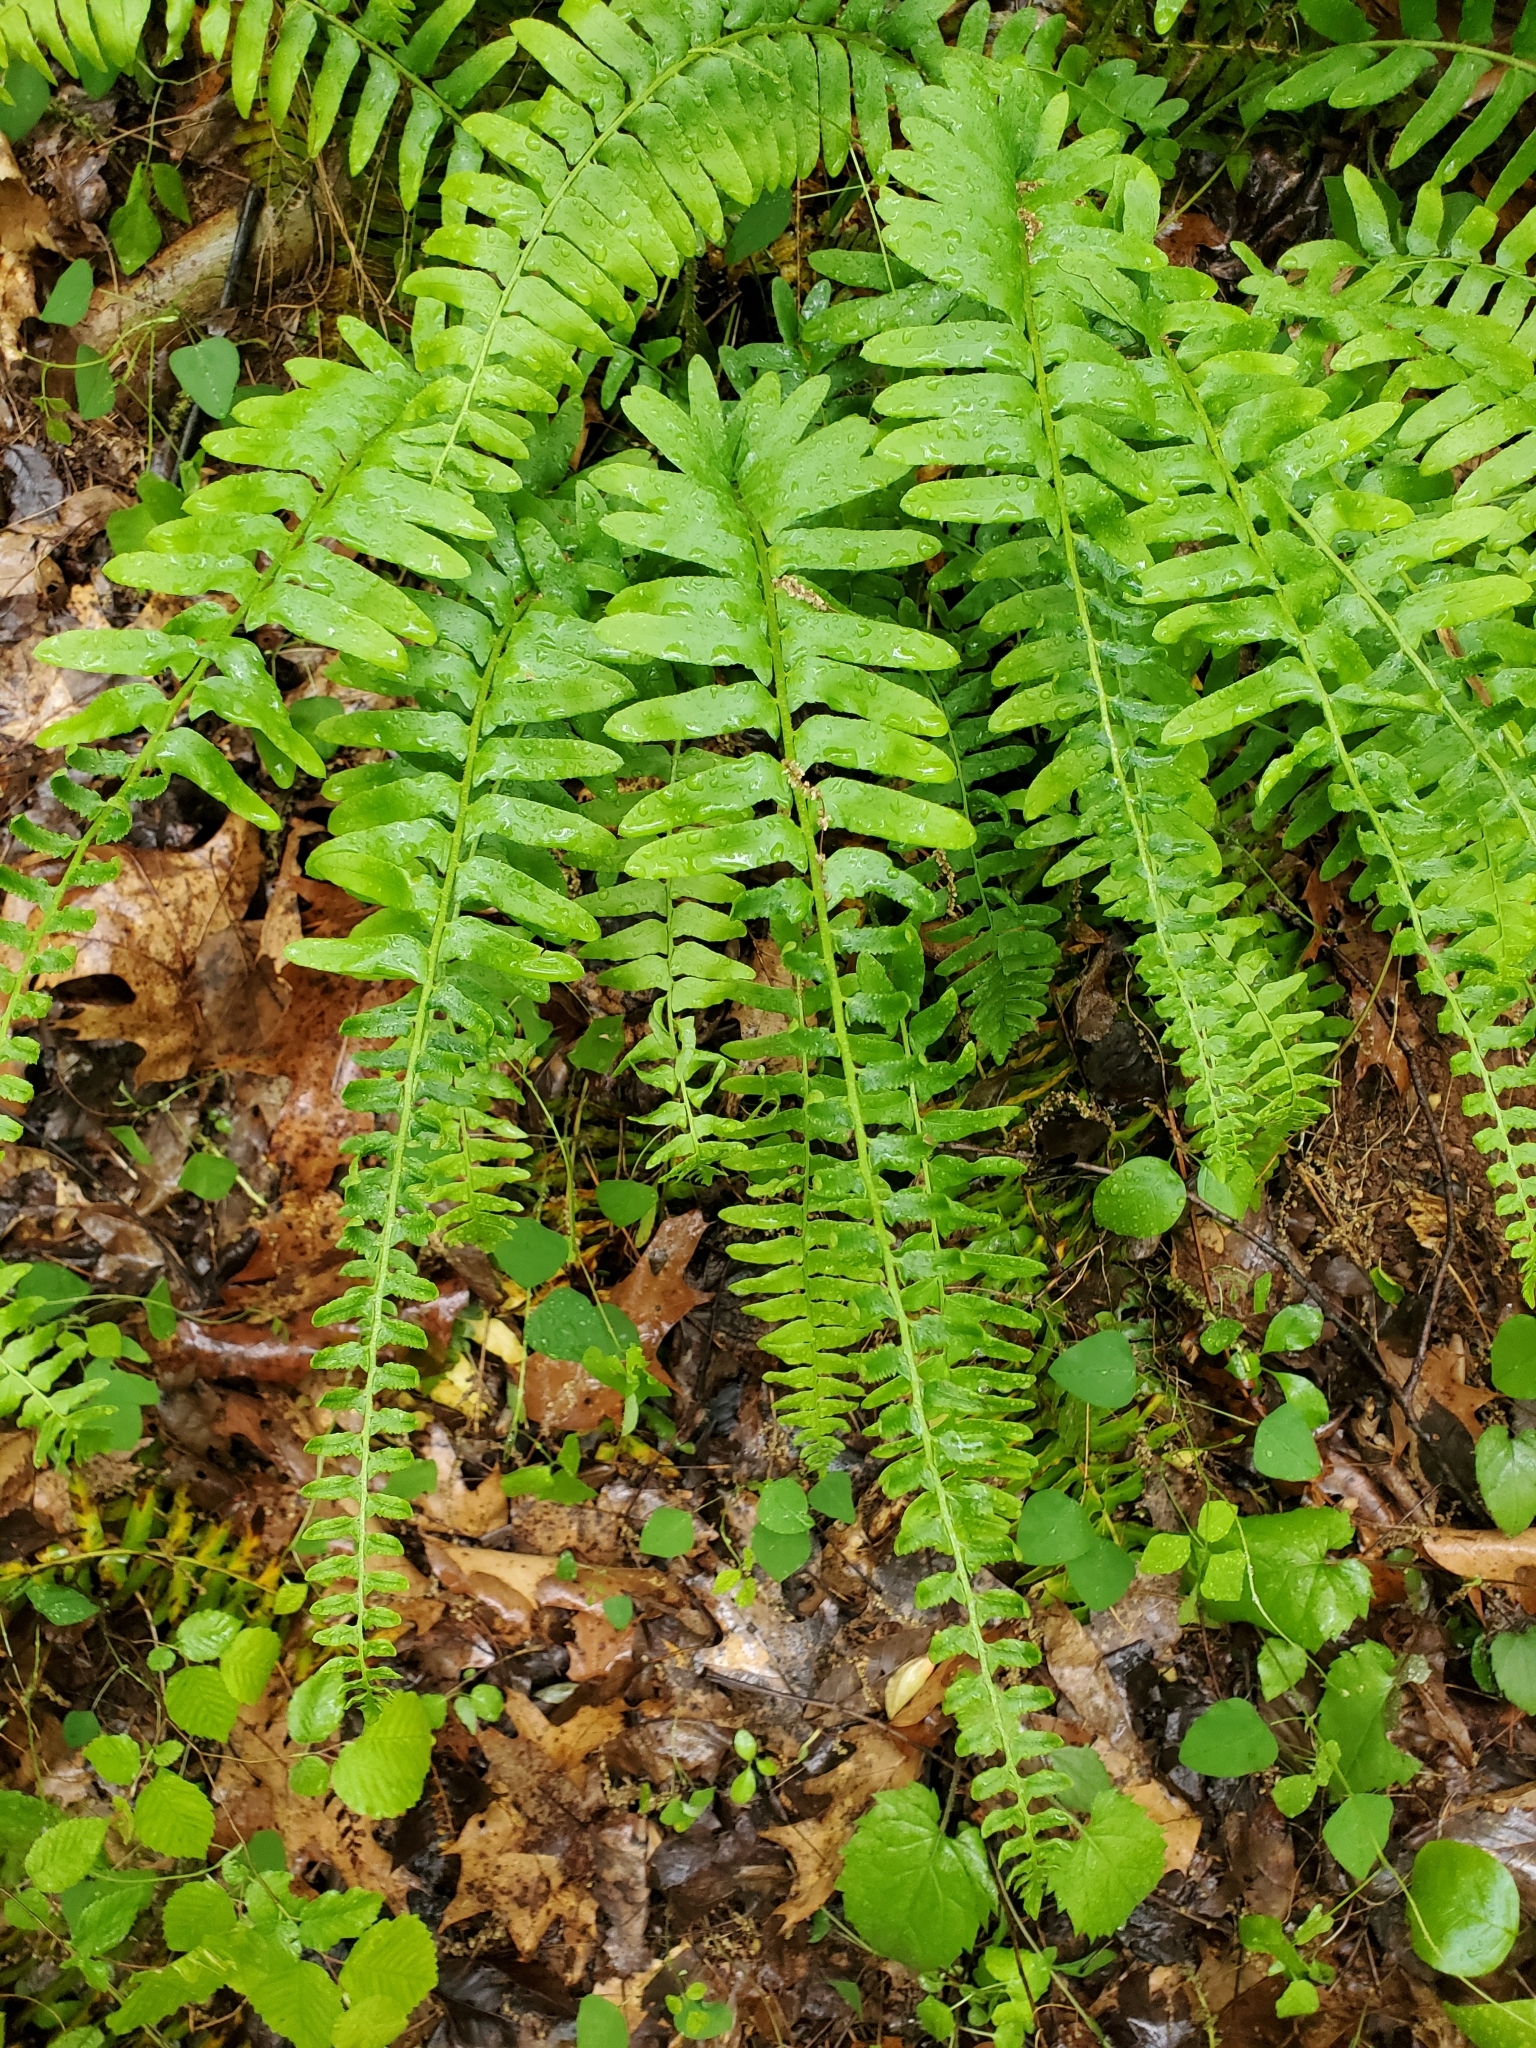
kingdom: Plantae
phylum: Tracheophyta
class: Polypodiopsida
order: Polypodiales
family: Dryopteridaceae
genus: Polystichum
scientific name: Polystichum acrostichoides
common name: Christmas fern
